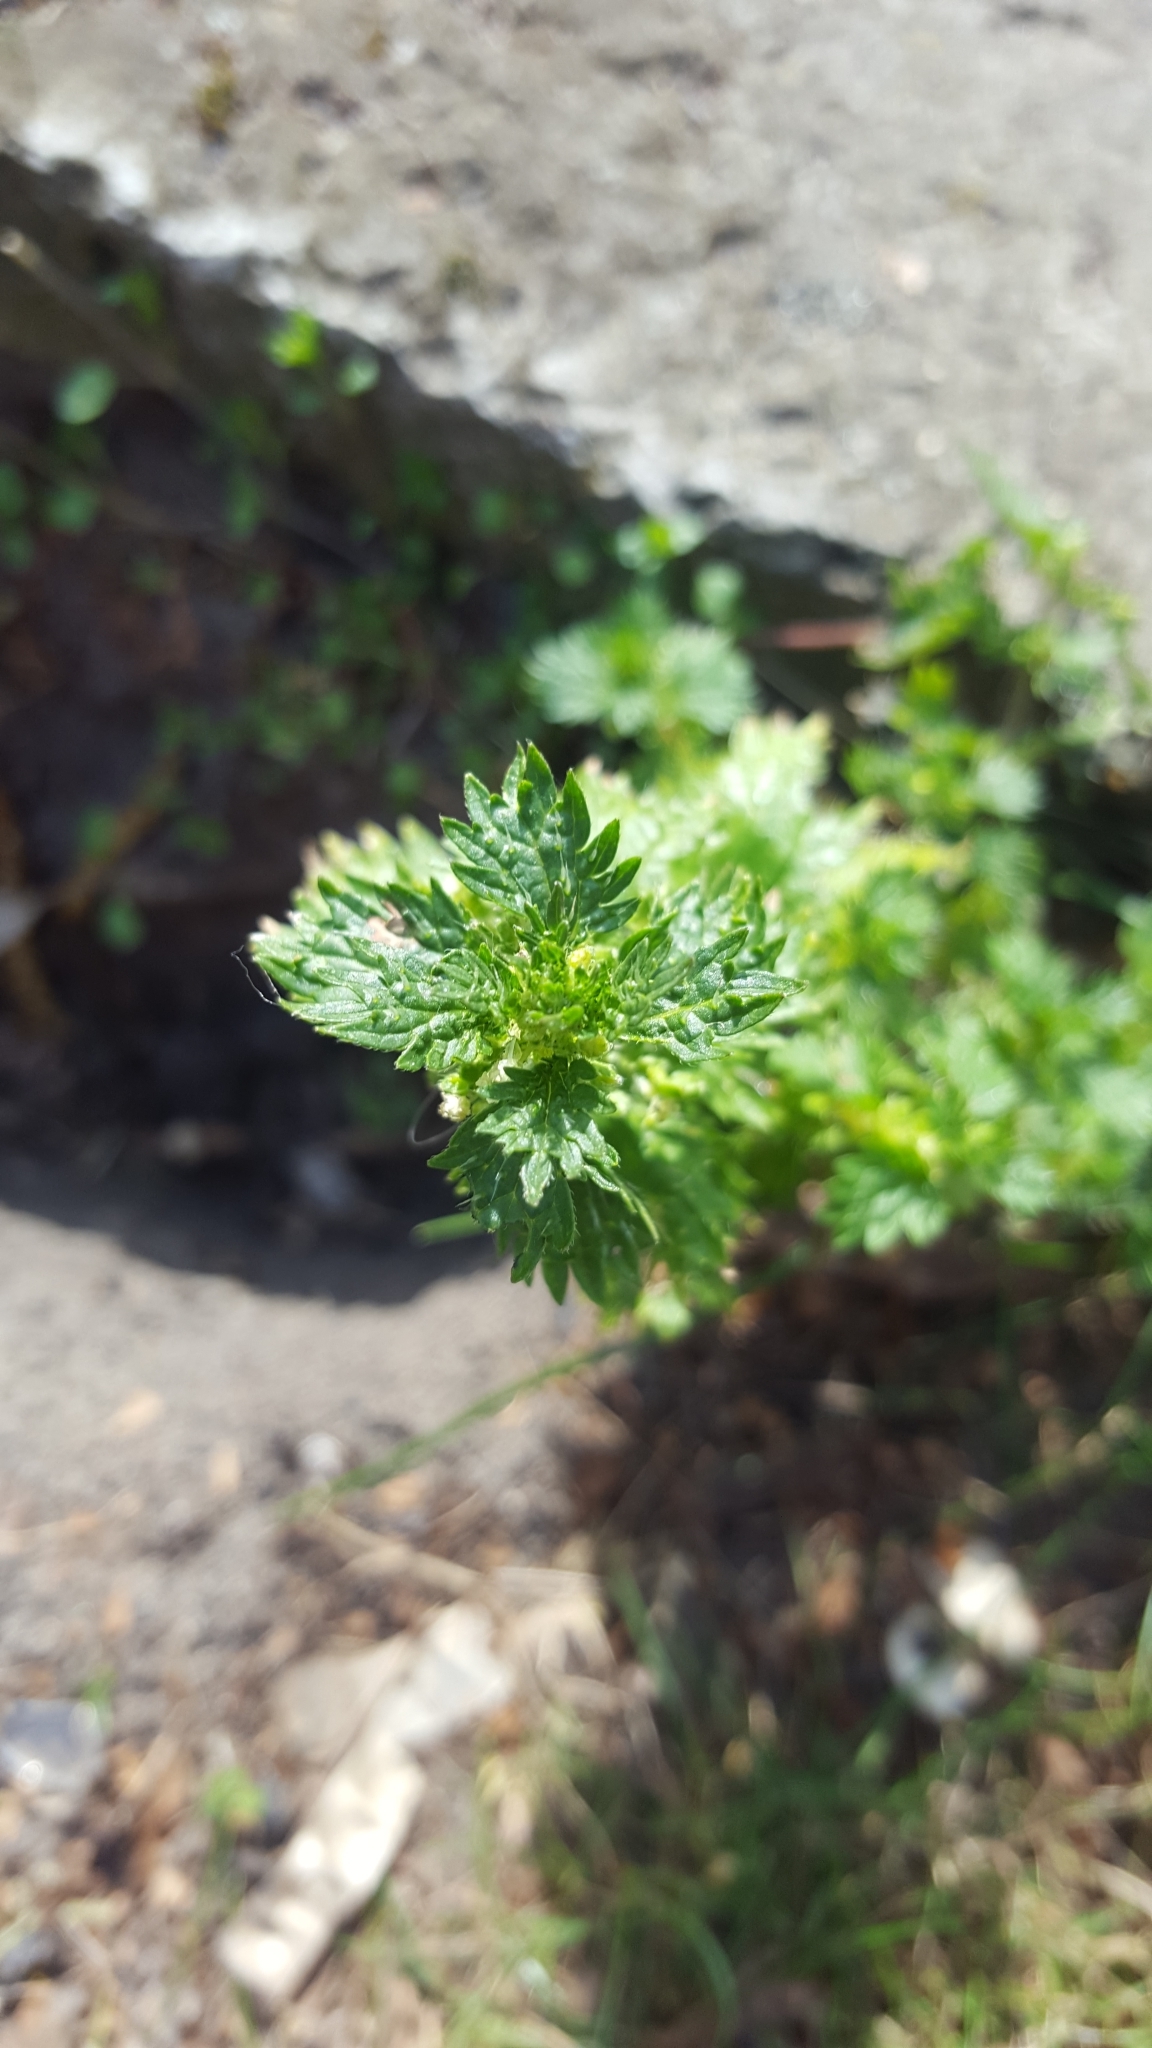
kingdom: Plantae
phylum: Tracheophyta
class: Magnoliopsida
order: Rosales
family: Urticaceae
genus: Urtica
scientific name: Urtica urens
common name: Dwarf nettle
